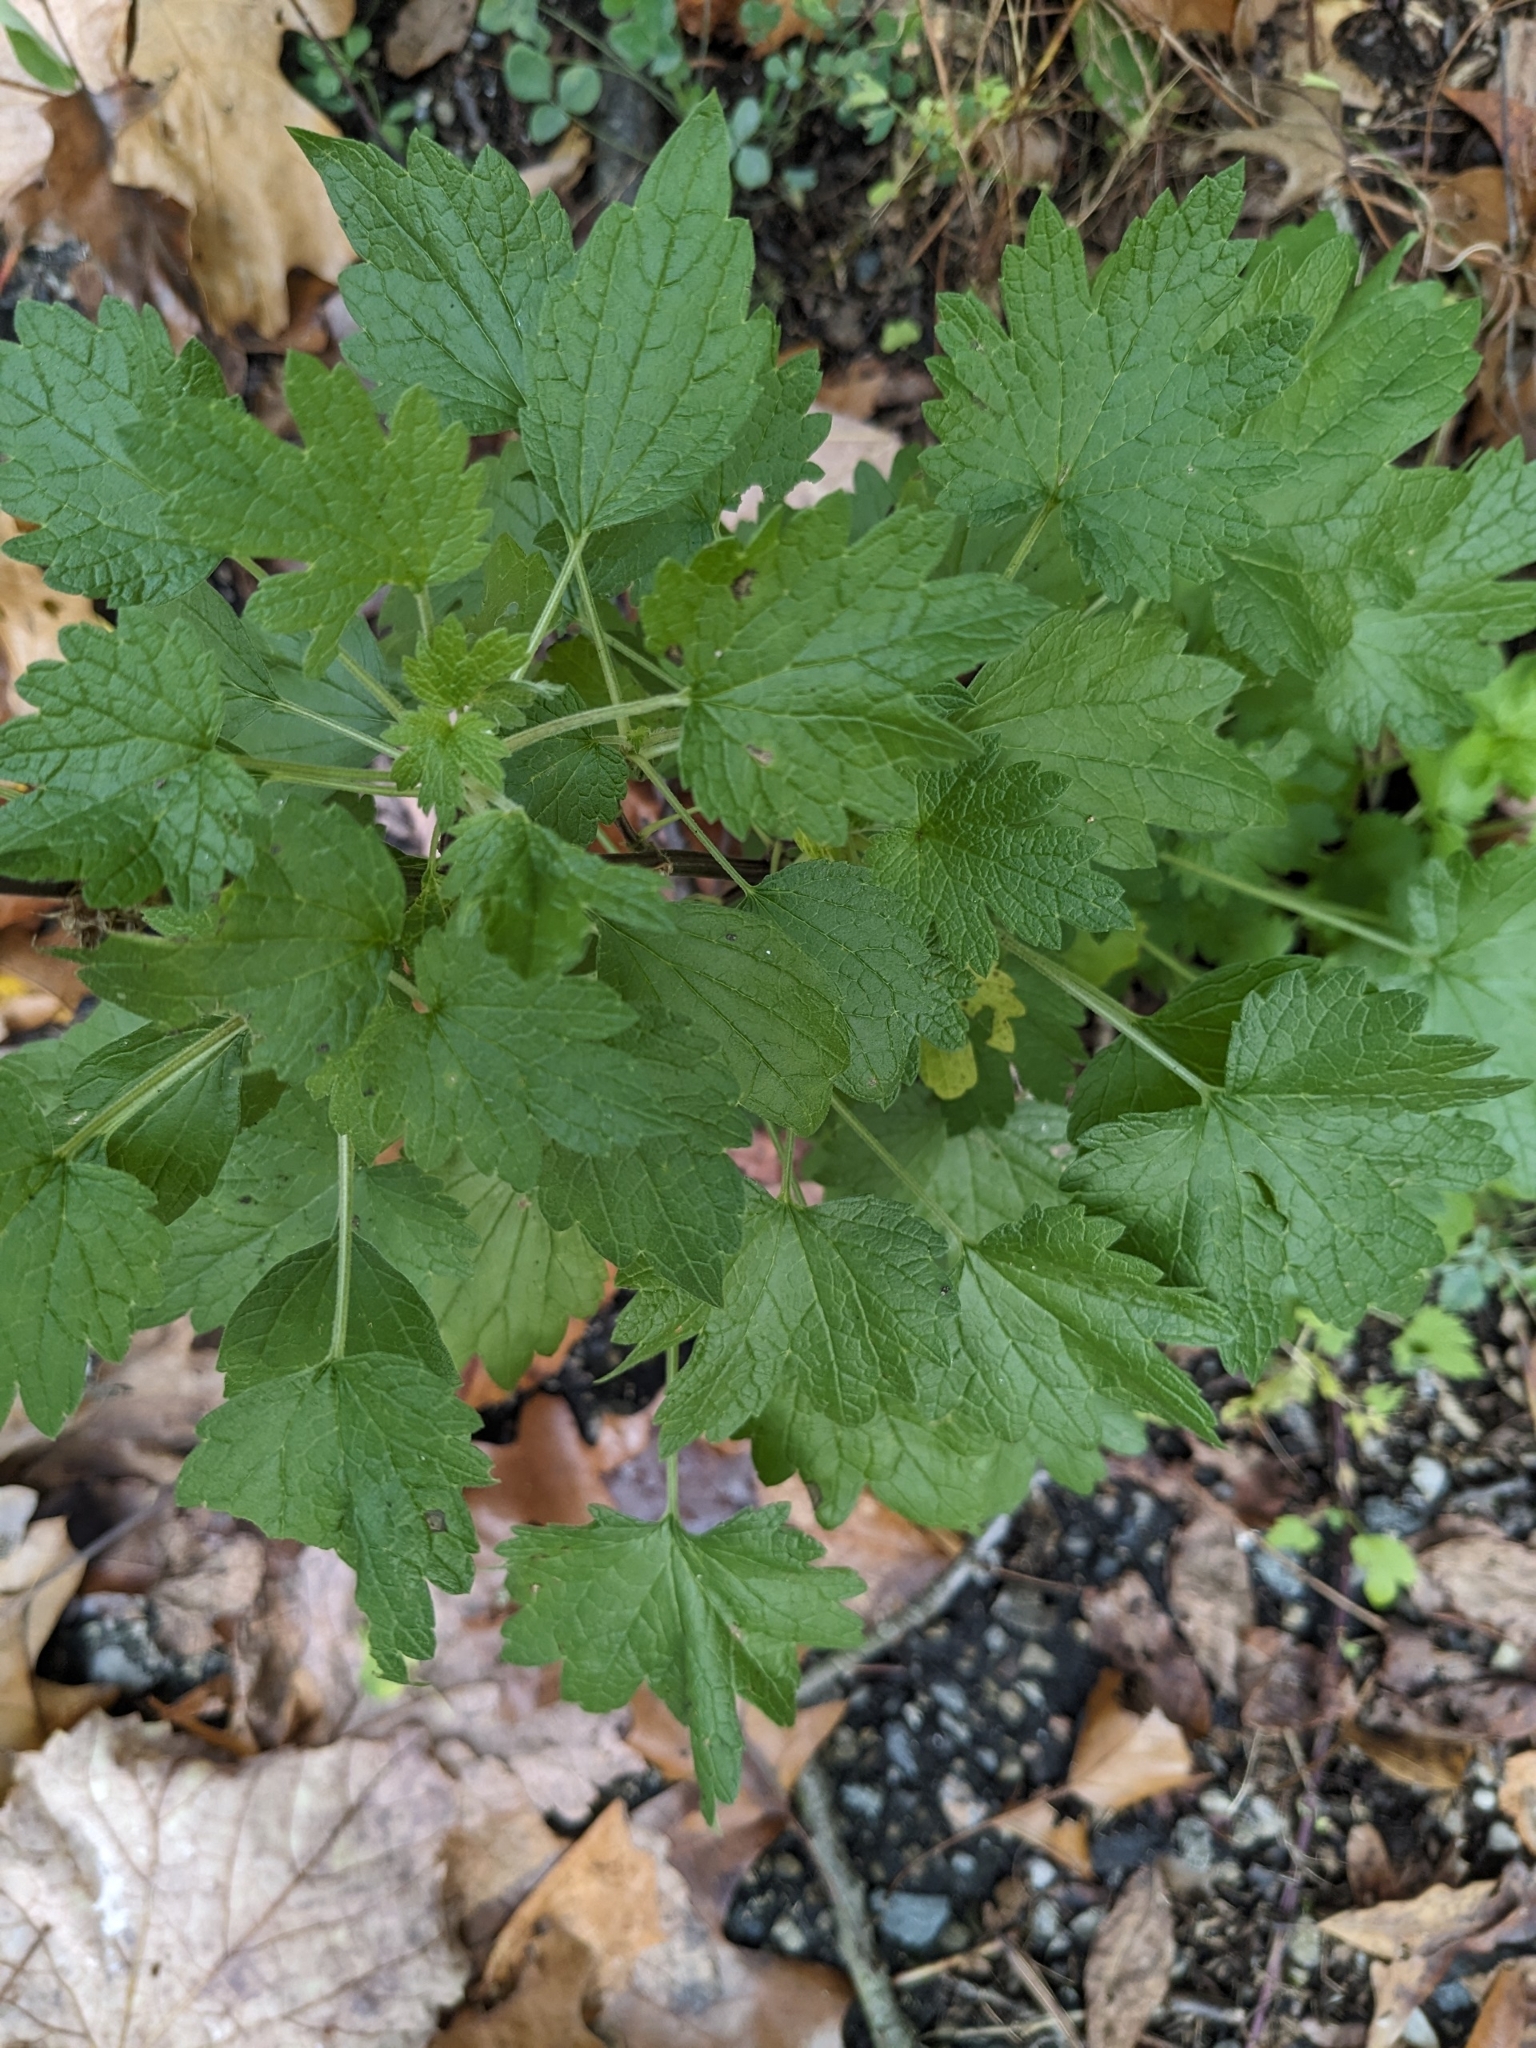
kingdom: Plantae
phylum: Tracheophyta
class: Magnoliopsida
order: Lamiales
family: Lamiaceae
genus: Leonurus
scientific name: Leonurus cardiaca
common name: Motherwort
